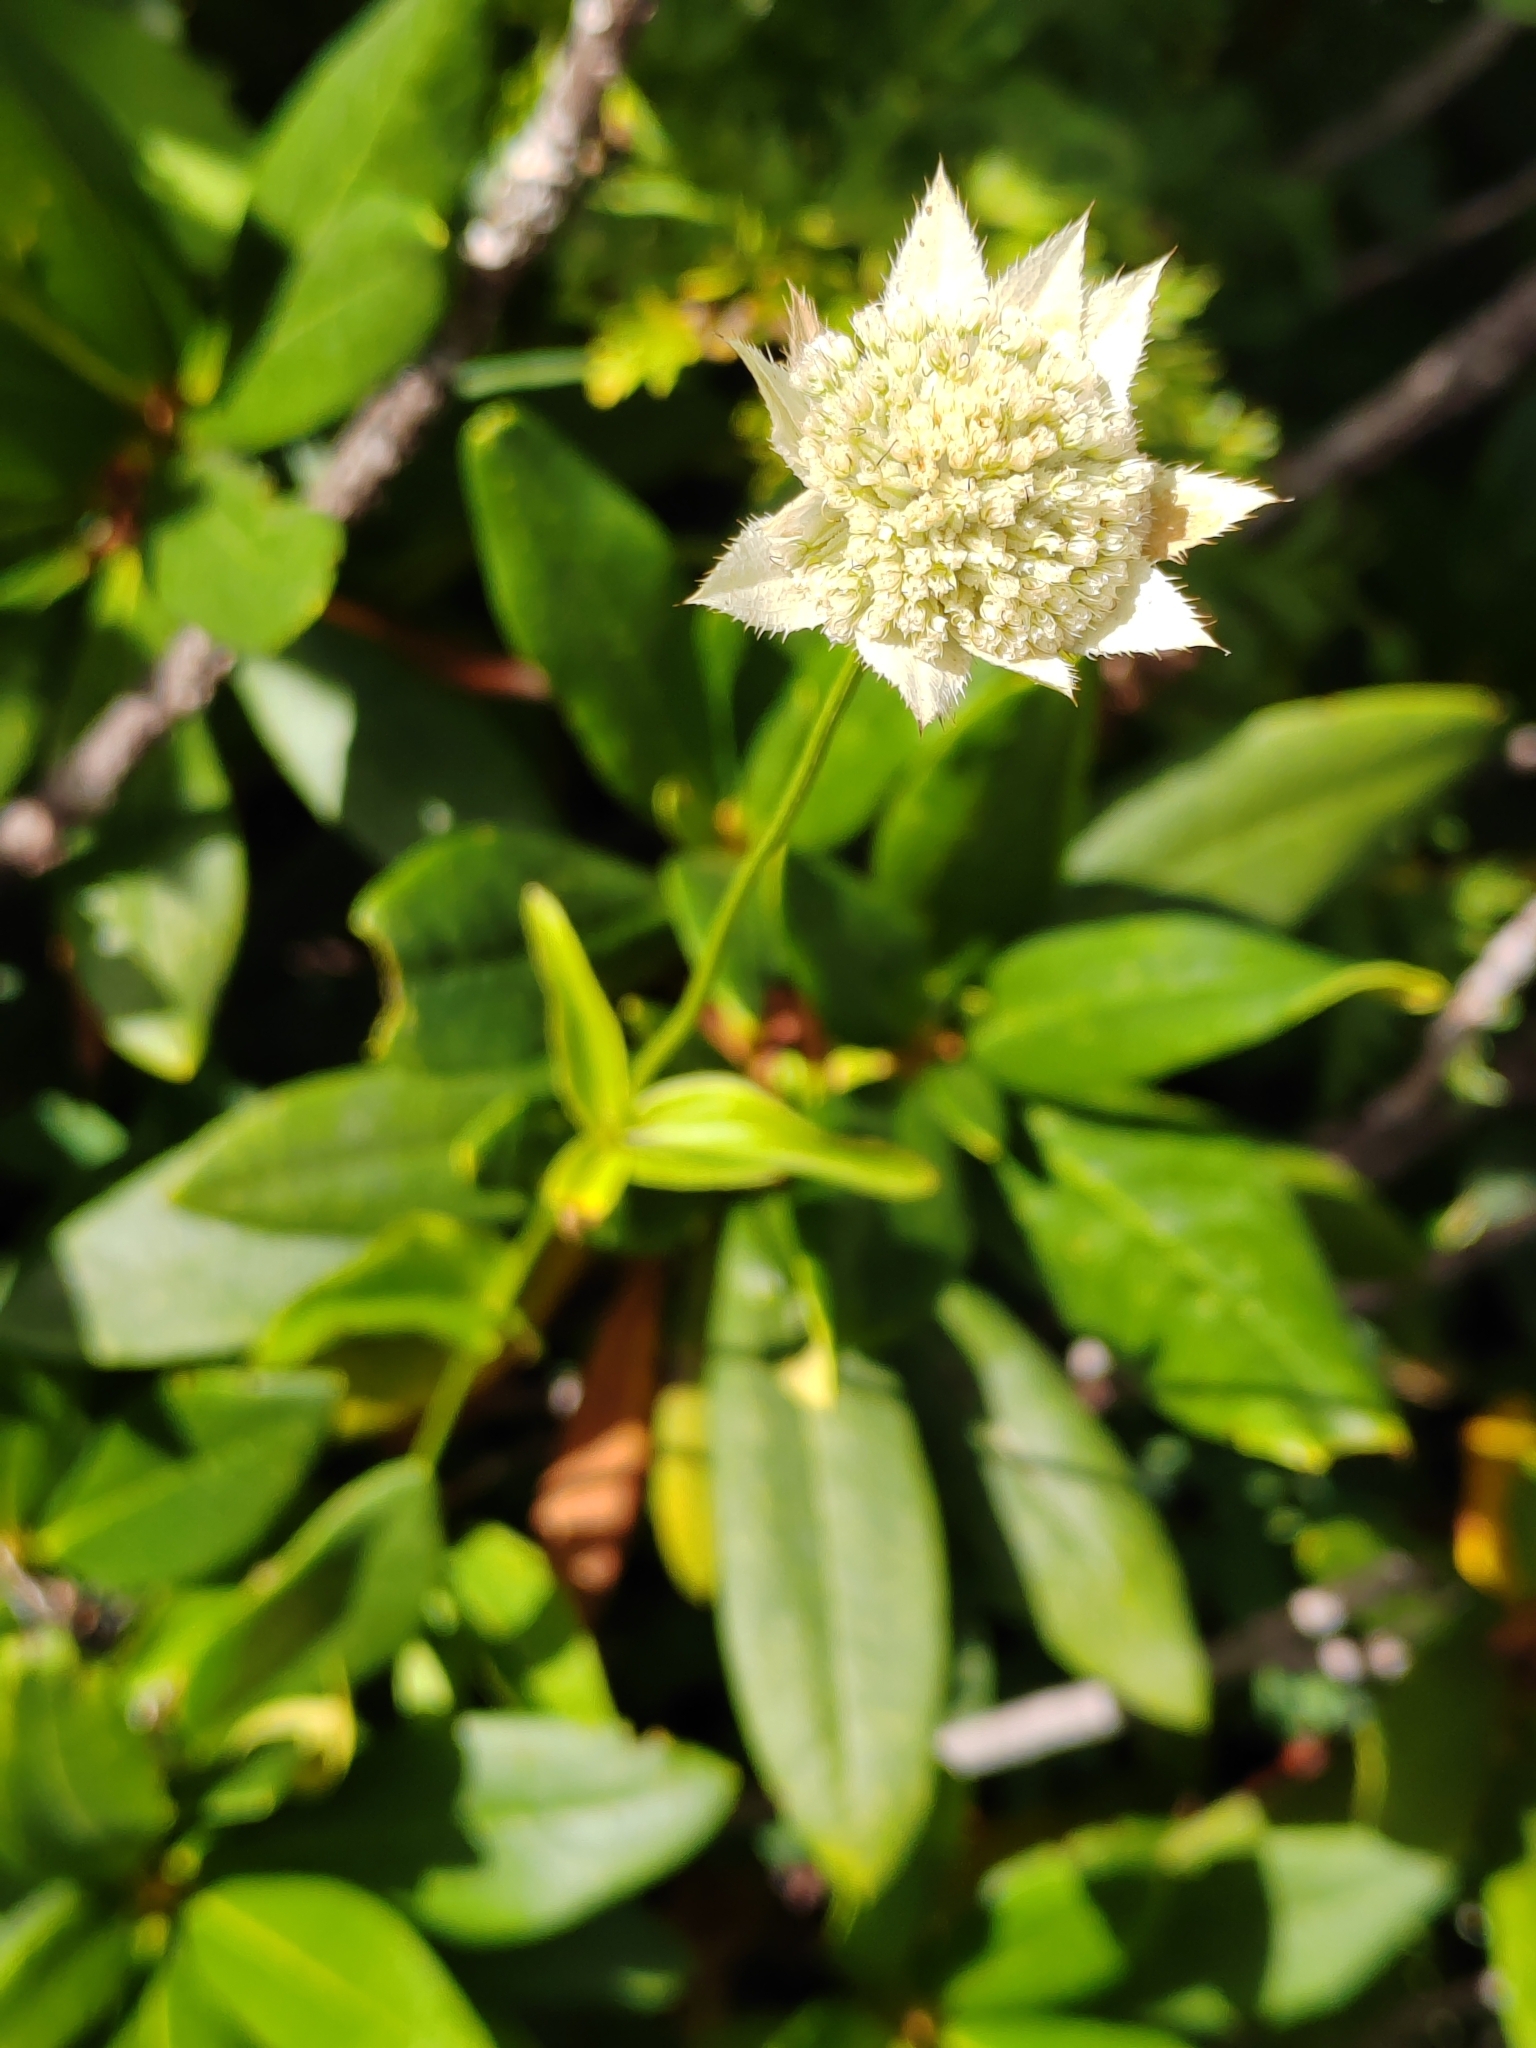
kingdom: Plantae
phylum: Tracheophyta
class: Magnoliopsida
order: Apiales
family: Apiaceae
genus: Astrantia
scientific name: Astrantia maxima
